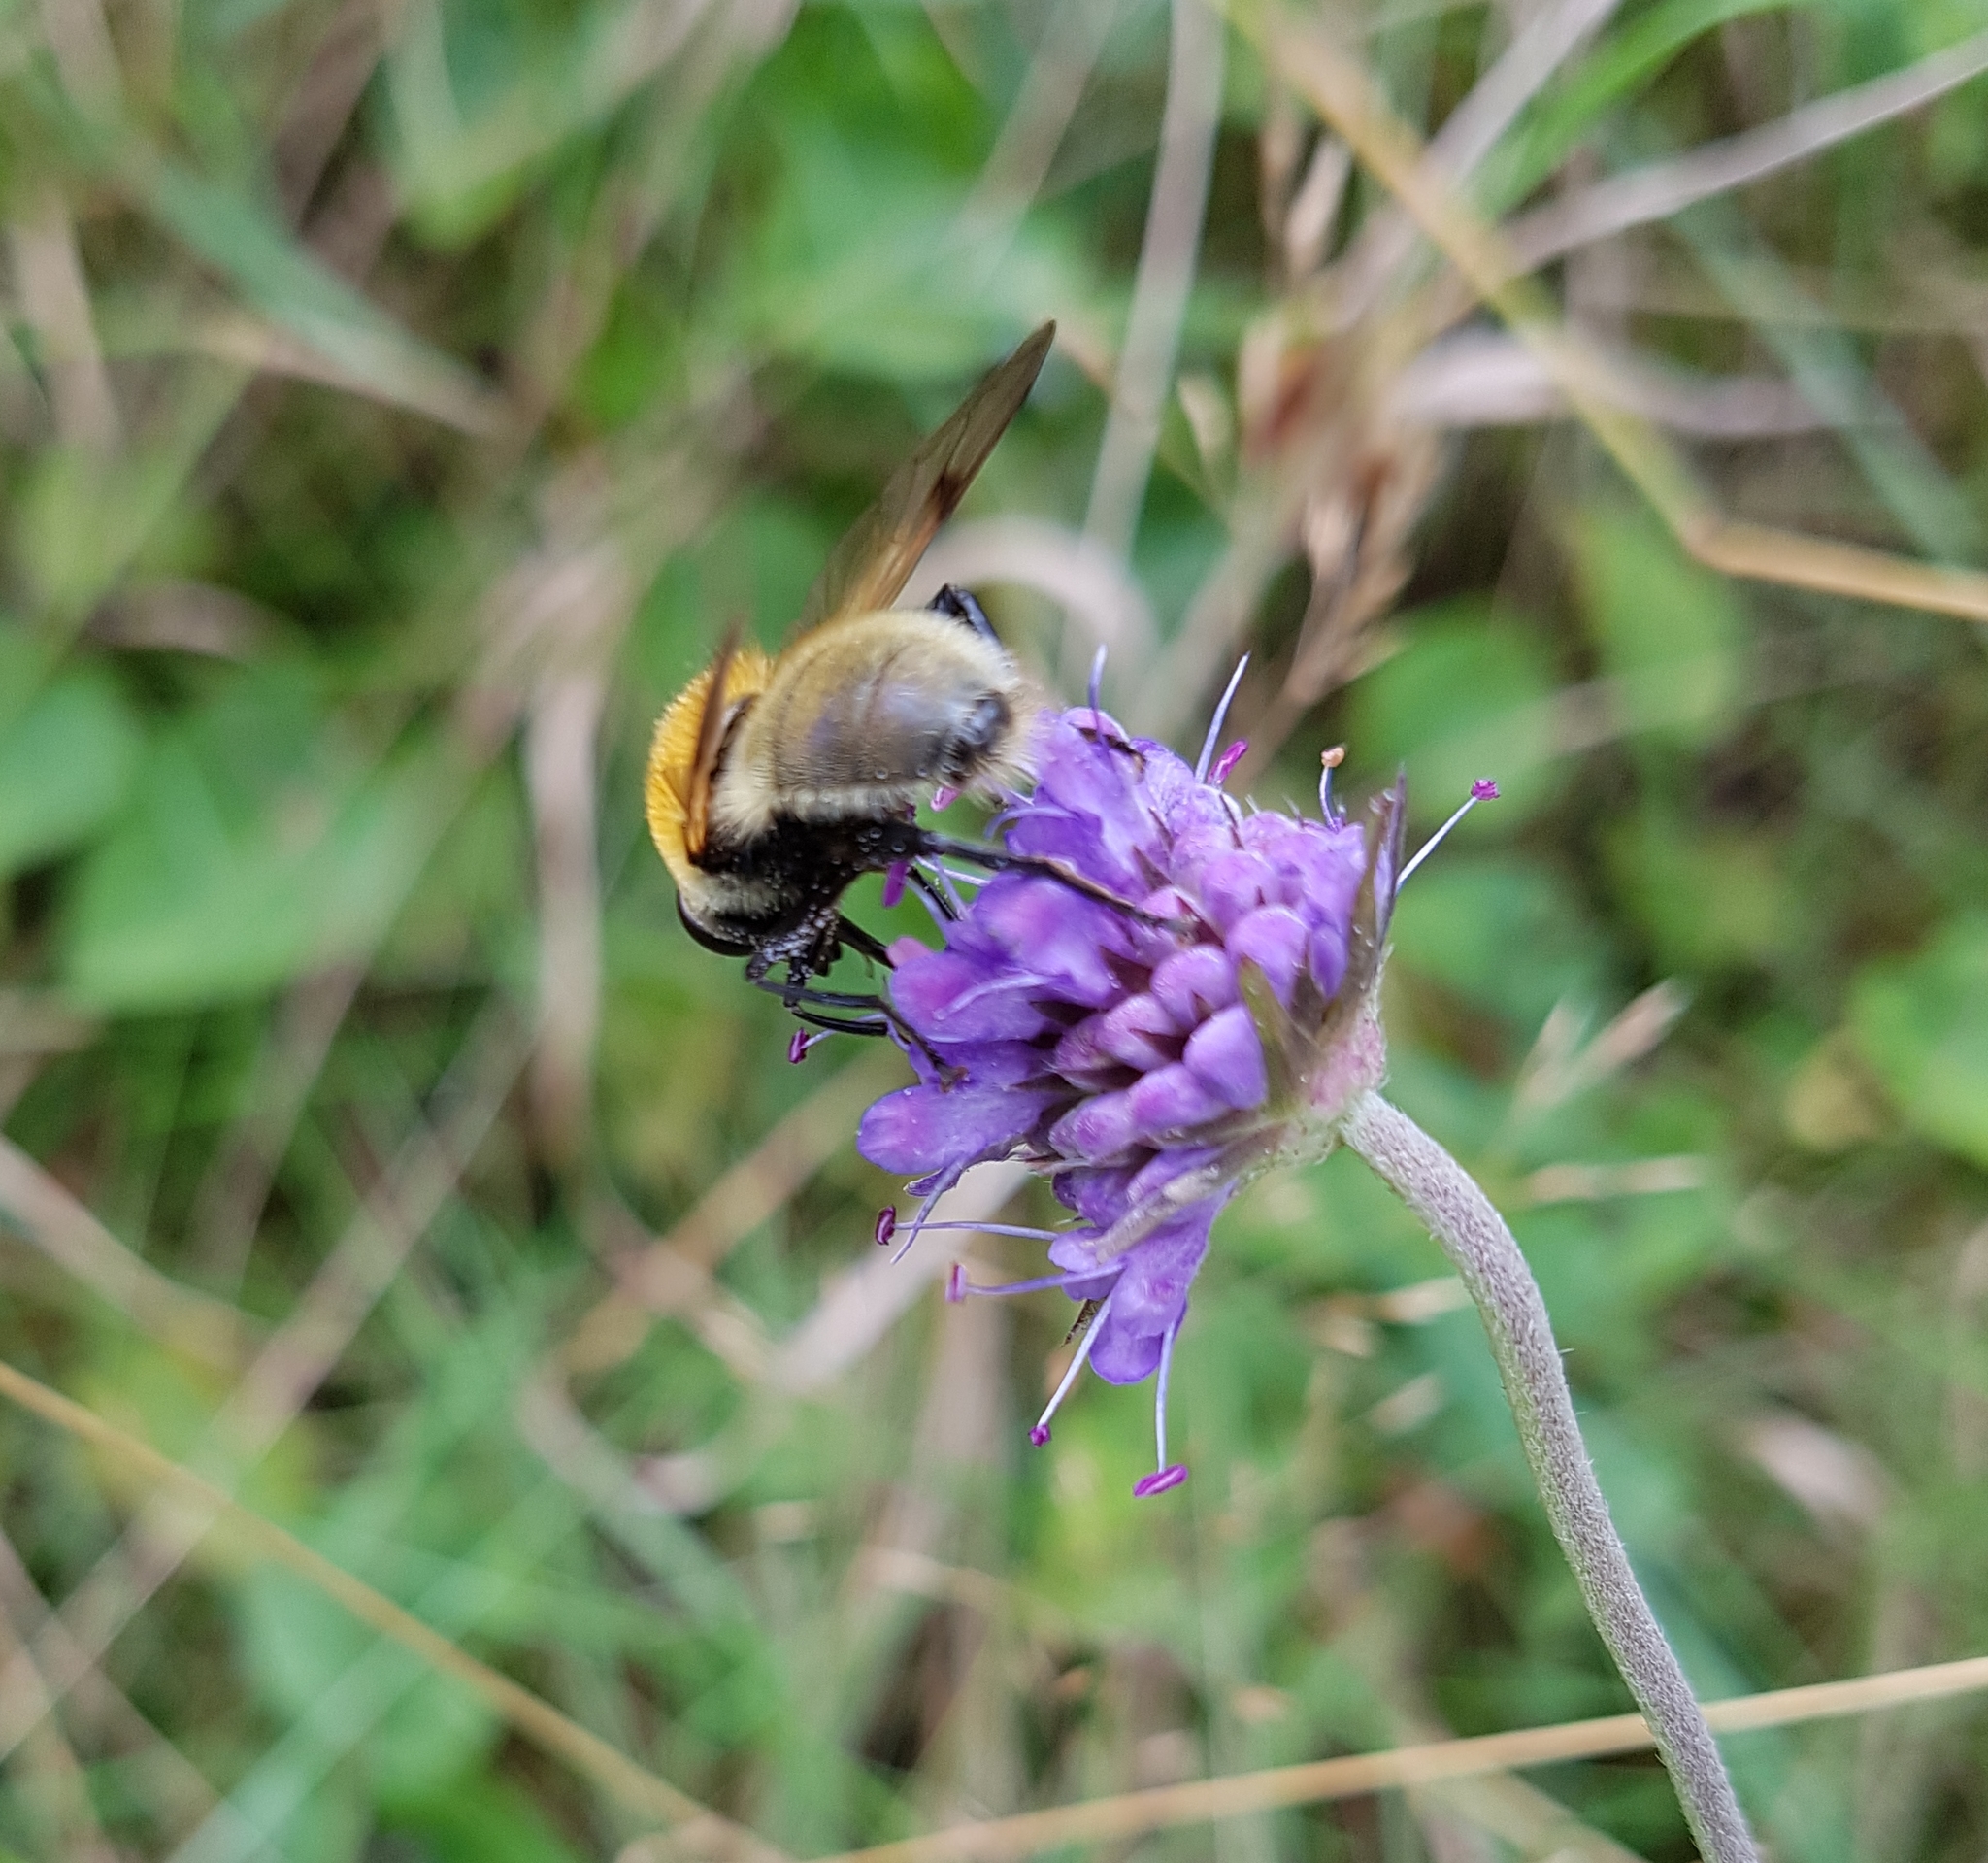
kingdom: Animalia
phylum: Arthropoda
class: Insecta
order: Diptera
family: Syrphidae
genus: Sericomyia
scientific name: Sericomyia superbiens
